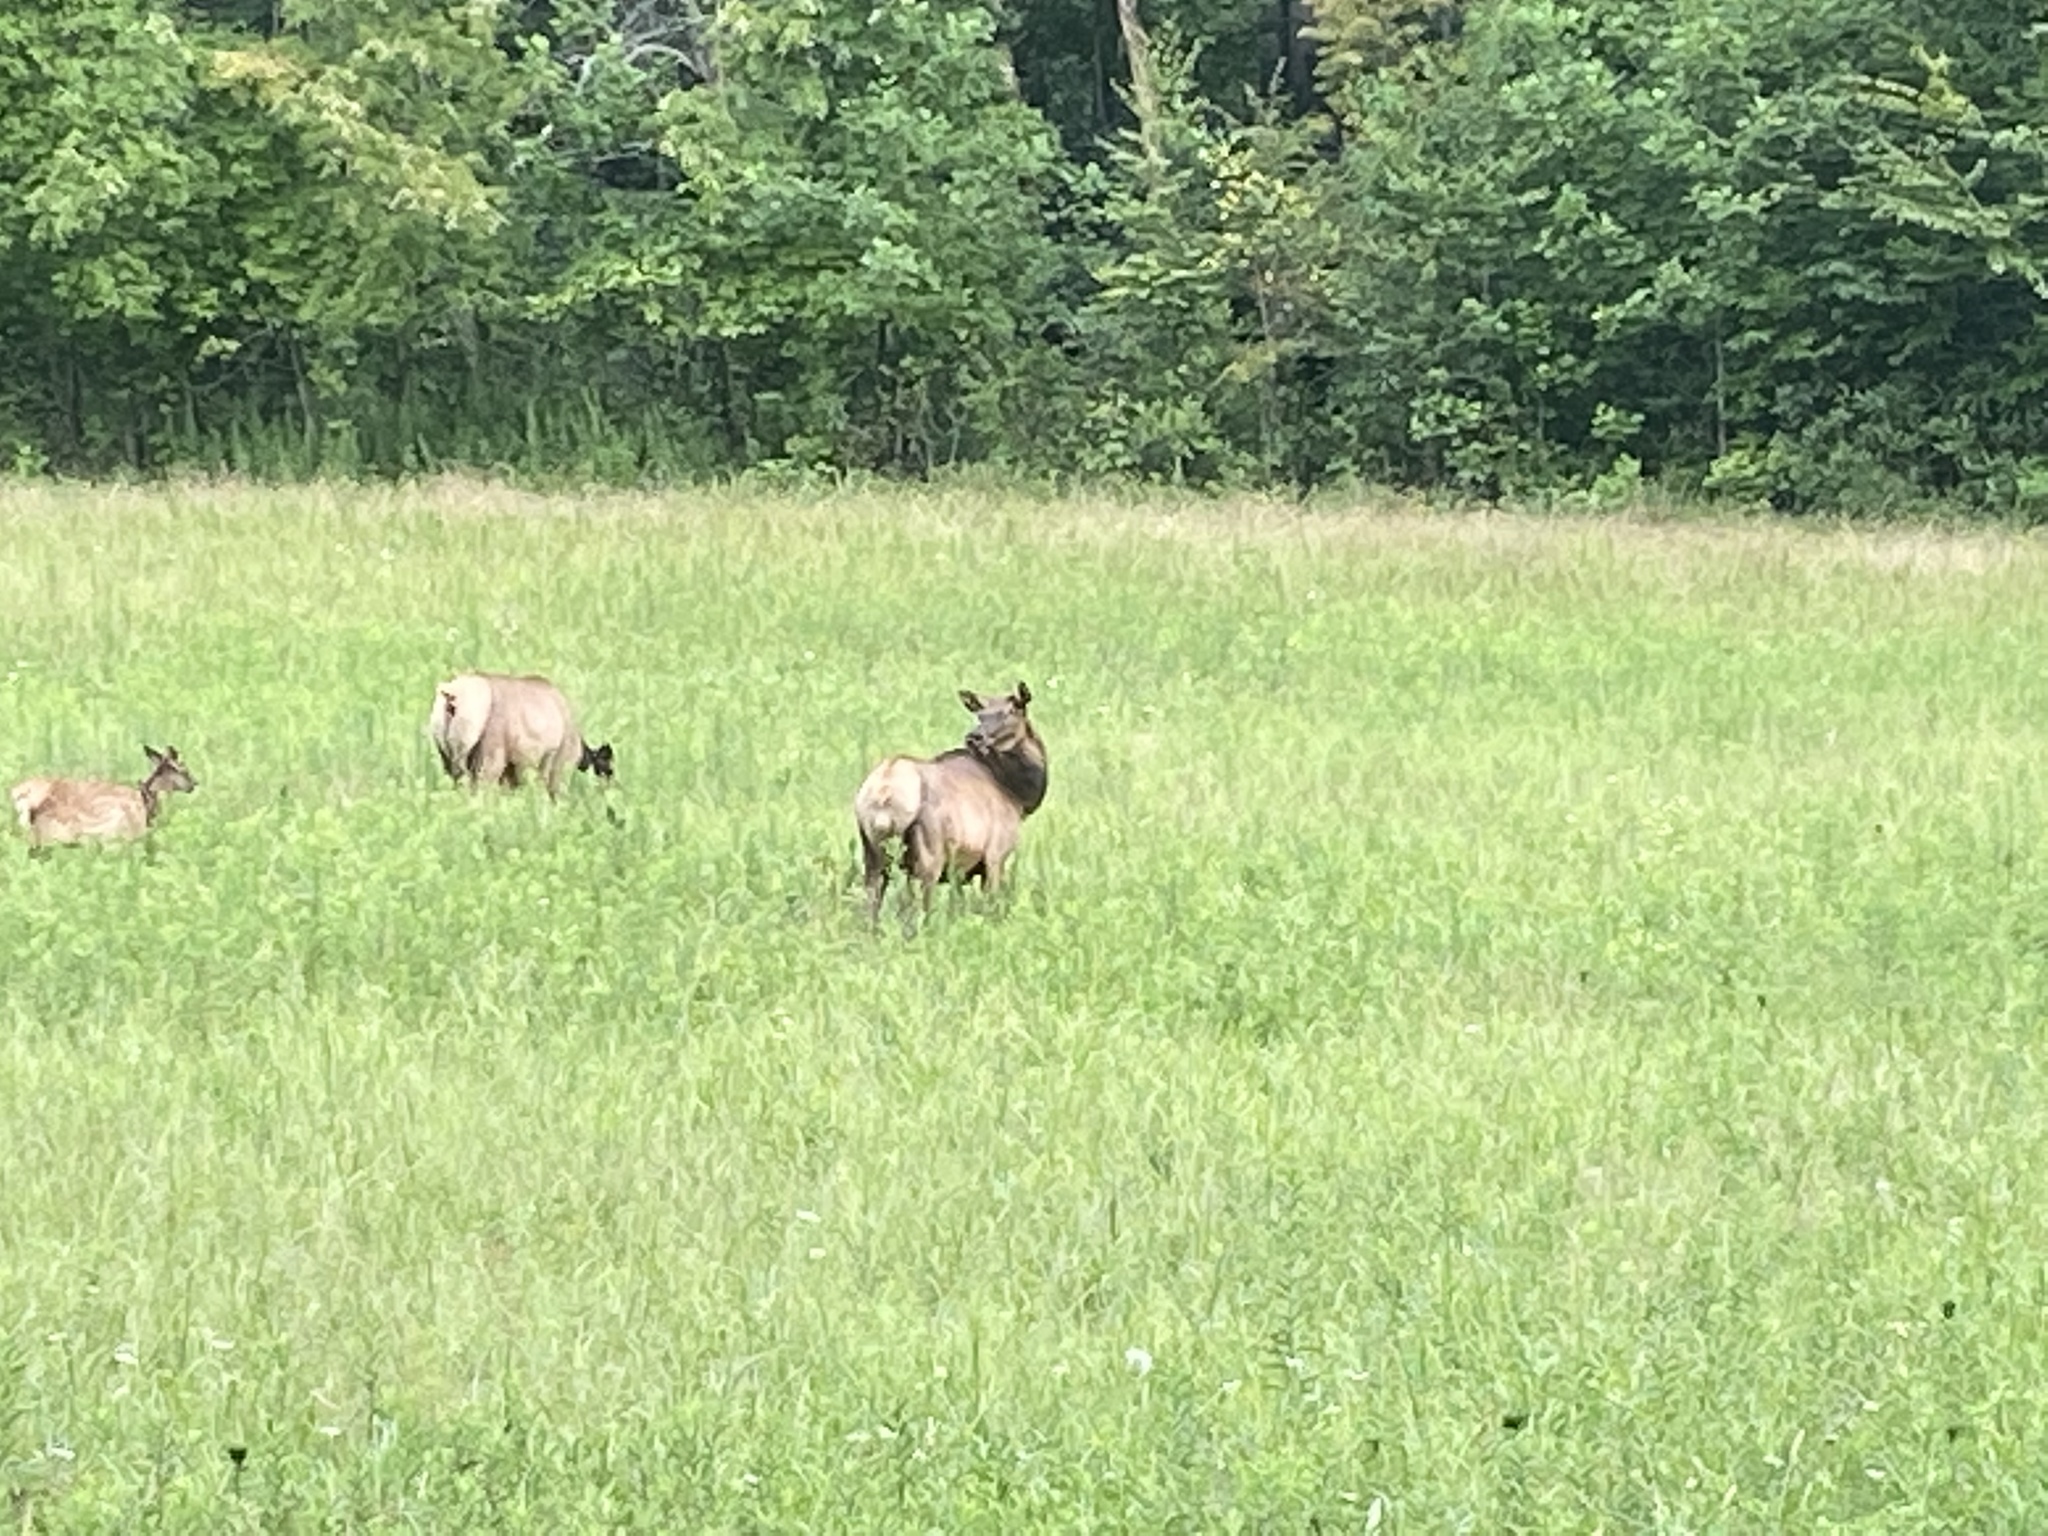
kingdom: Animalia
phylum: Chordata
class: Mammalia
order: Artiodactyla
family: Cervidae
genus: Cervus
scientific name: Cervus elaphus
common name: Red deer
